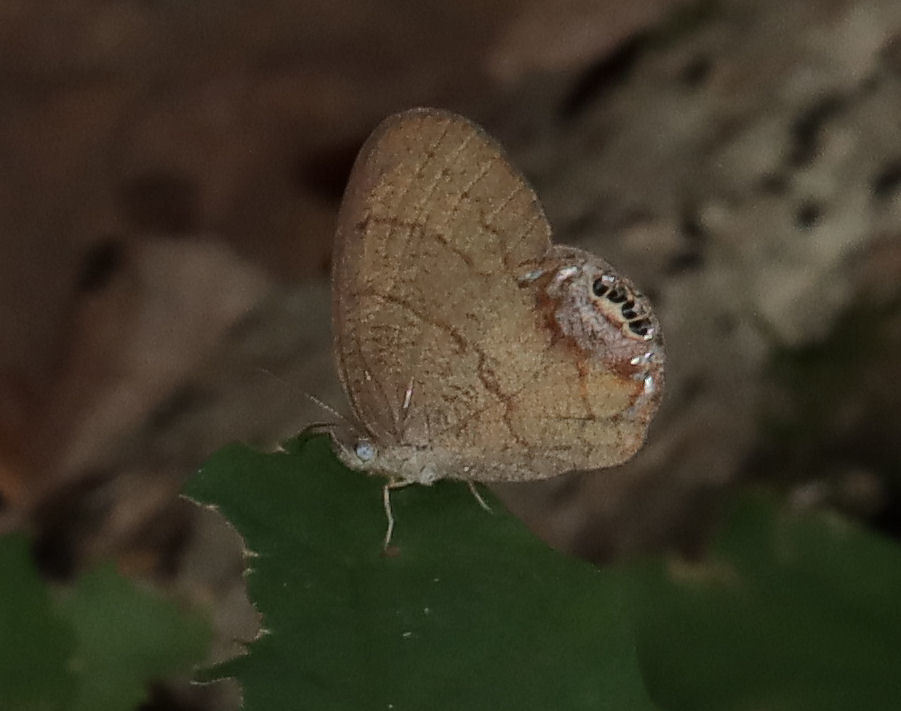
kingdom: Animalia
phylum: Arthropoda
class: Insecta
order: Lepidoptera
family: Nymphalidae
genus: Euptychia
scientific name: Euptychia cornelius
